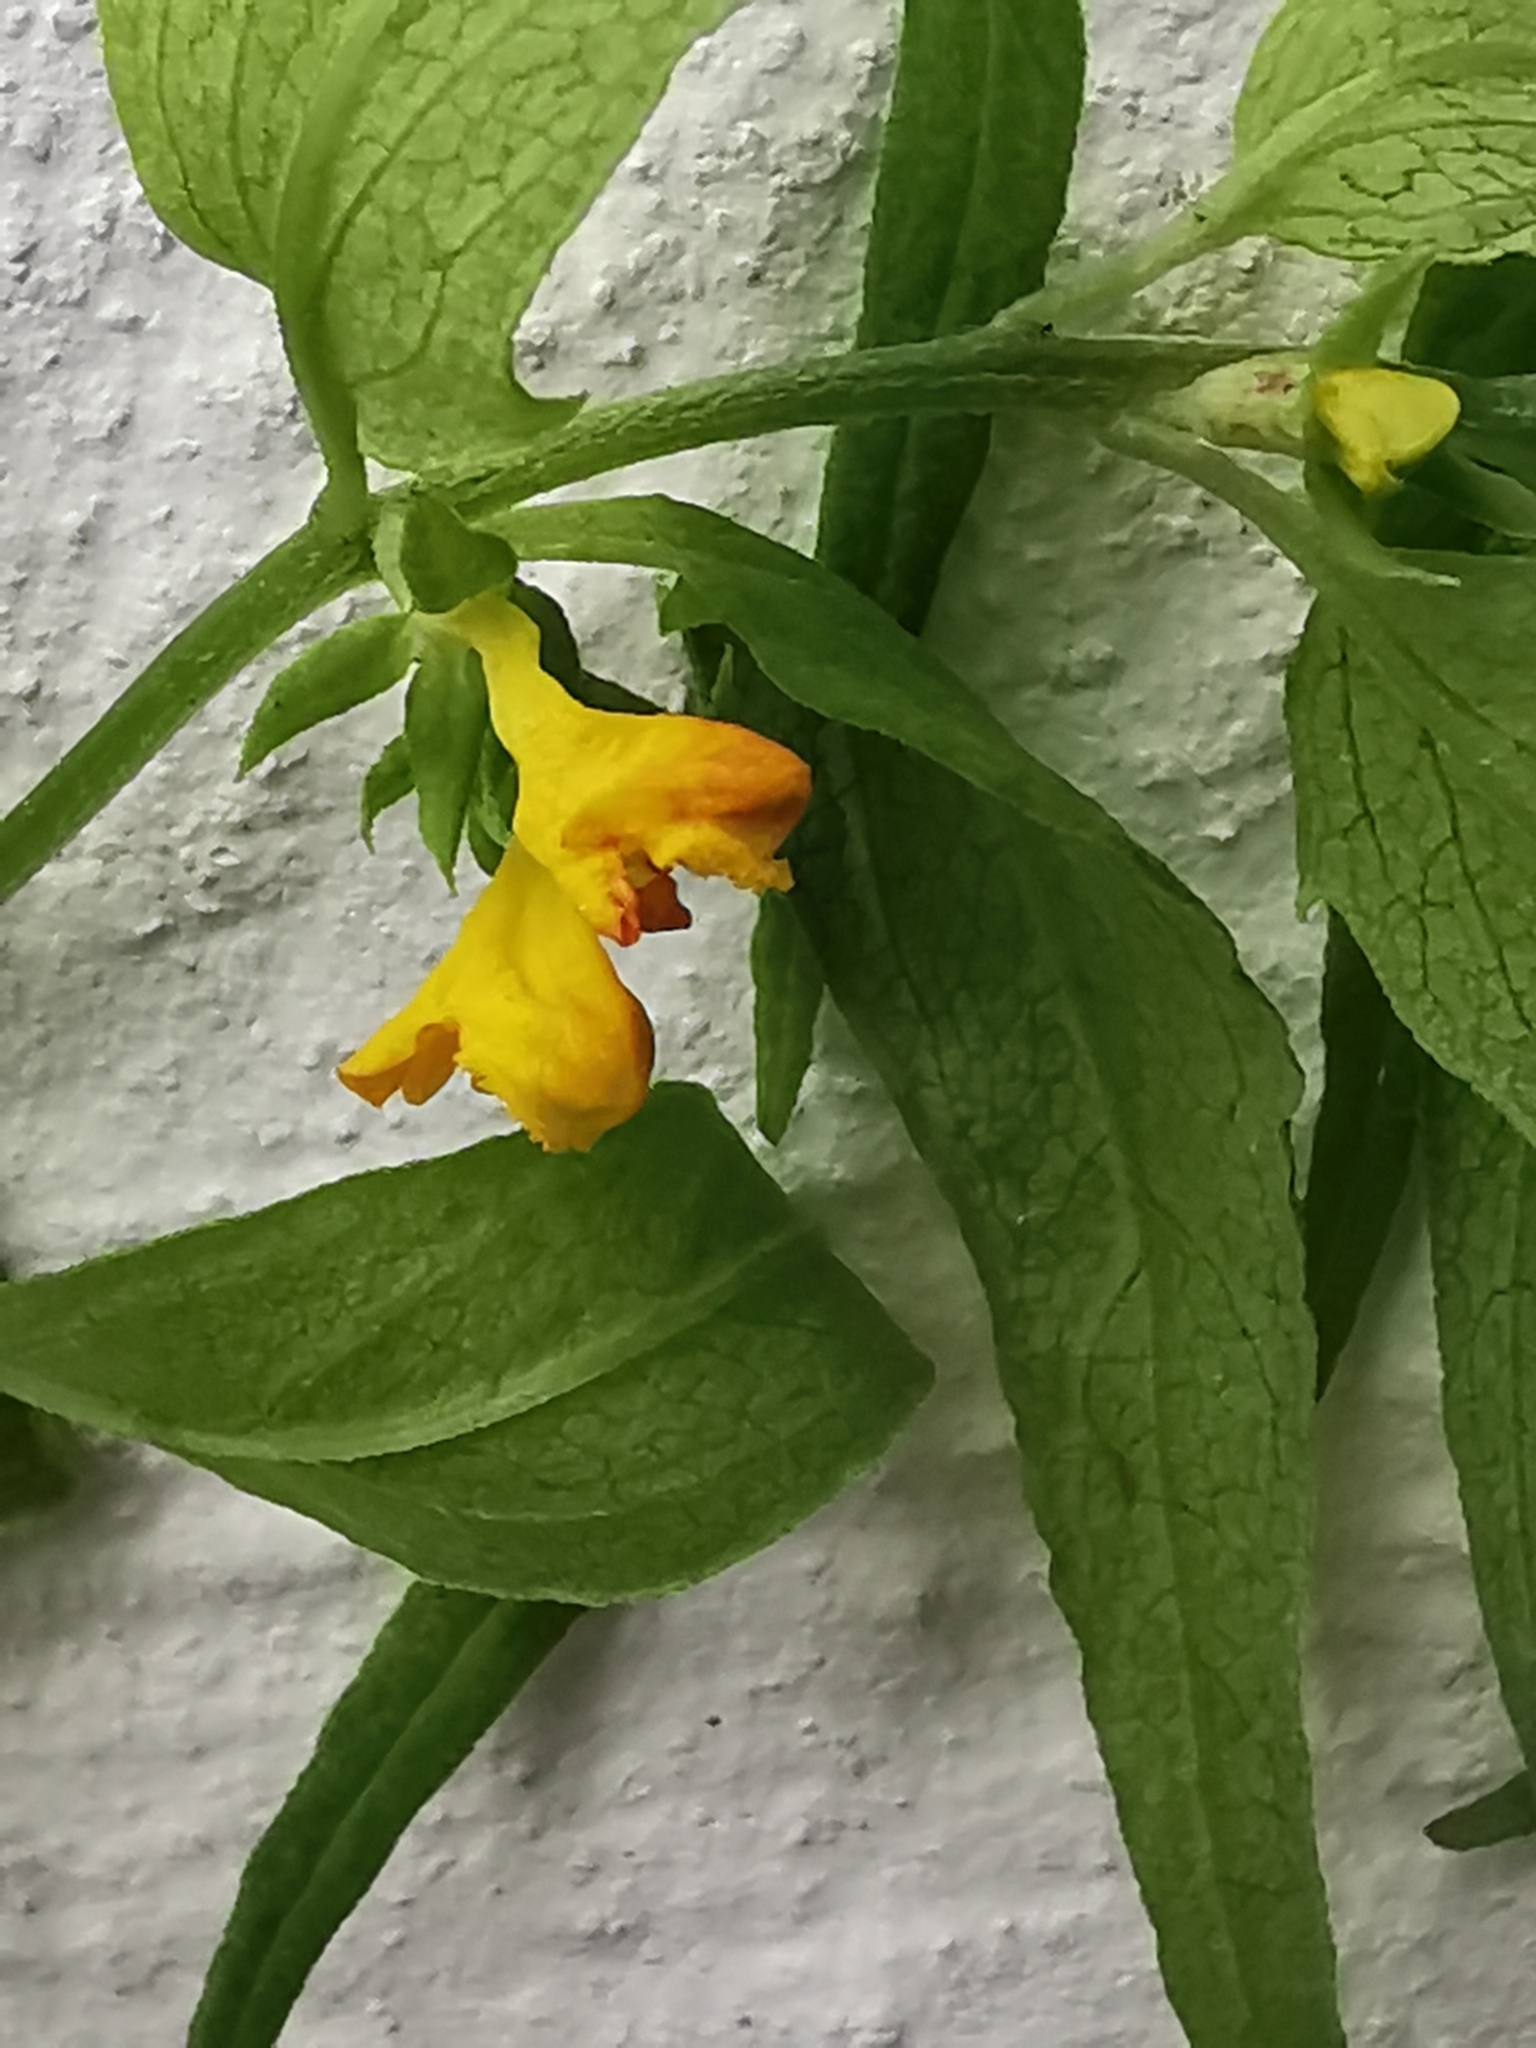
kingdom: Plantae
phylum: Tracheophyta
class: Magnoliopsida
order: Lamiales
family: Orobanchaceae
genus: Melampyrum
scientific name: Melampyrum sylvaticum
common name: Small cow-wheat
